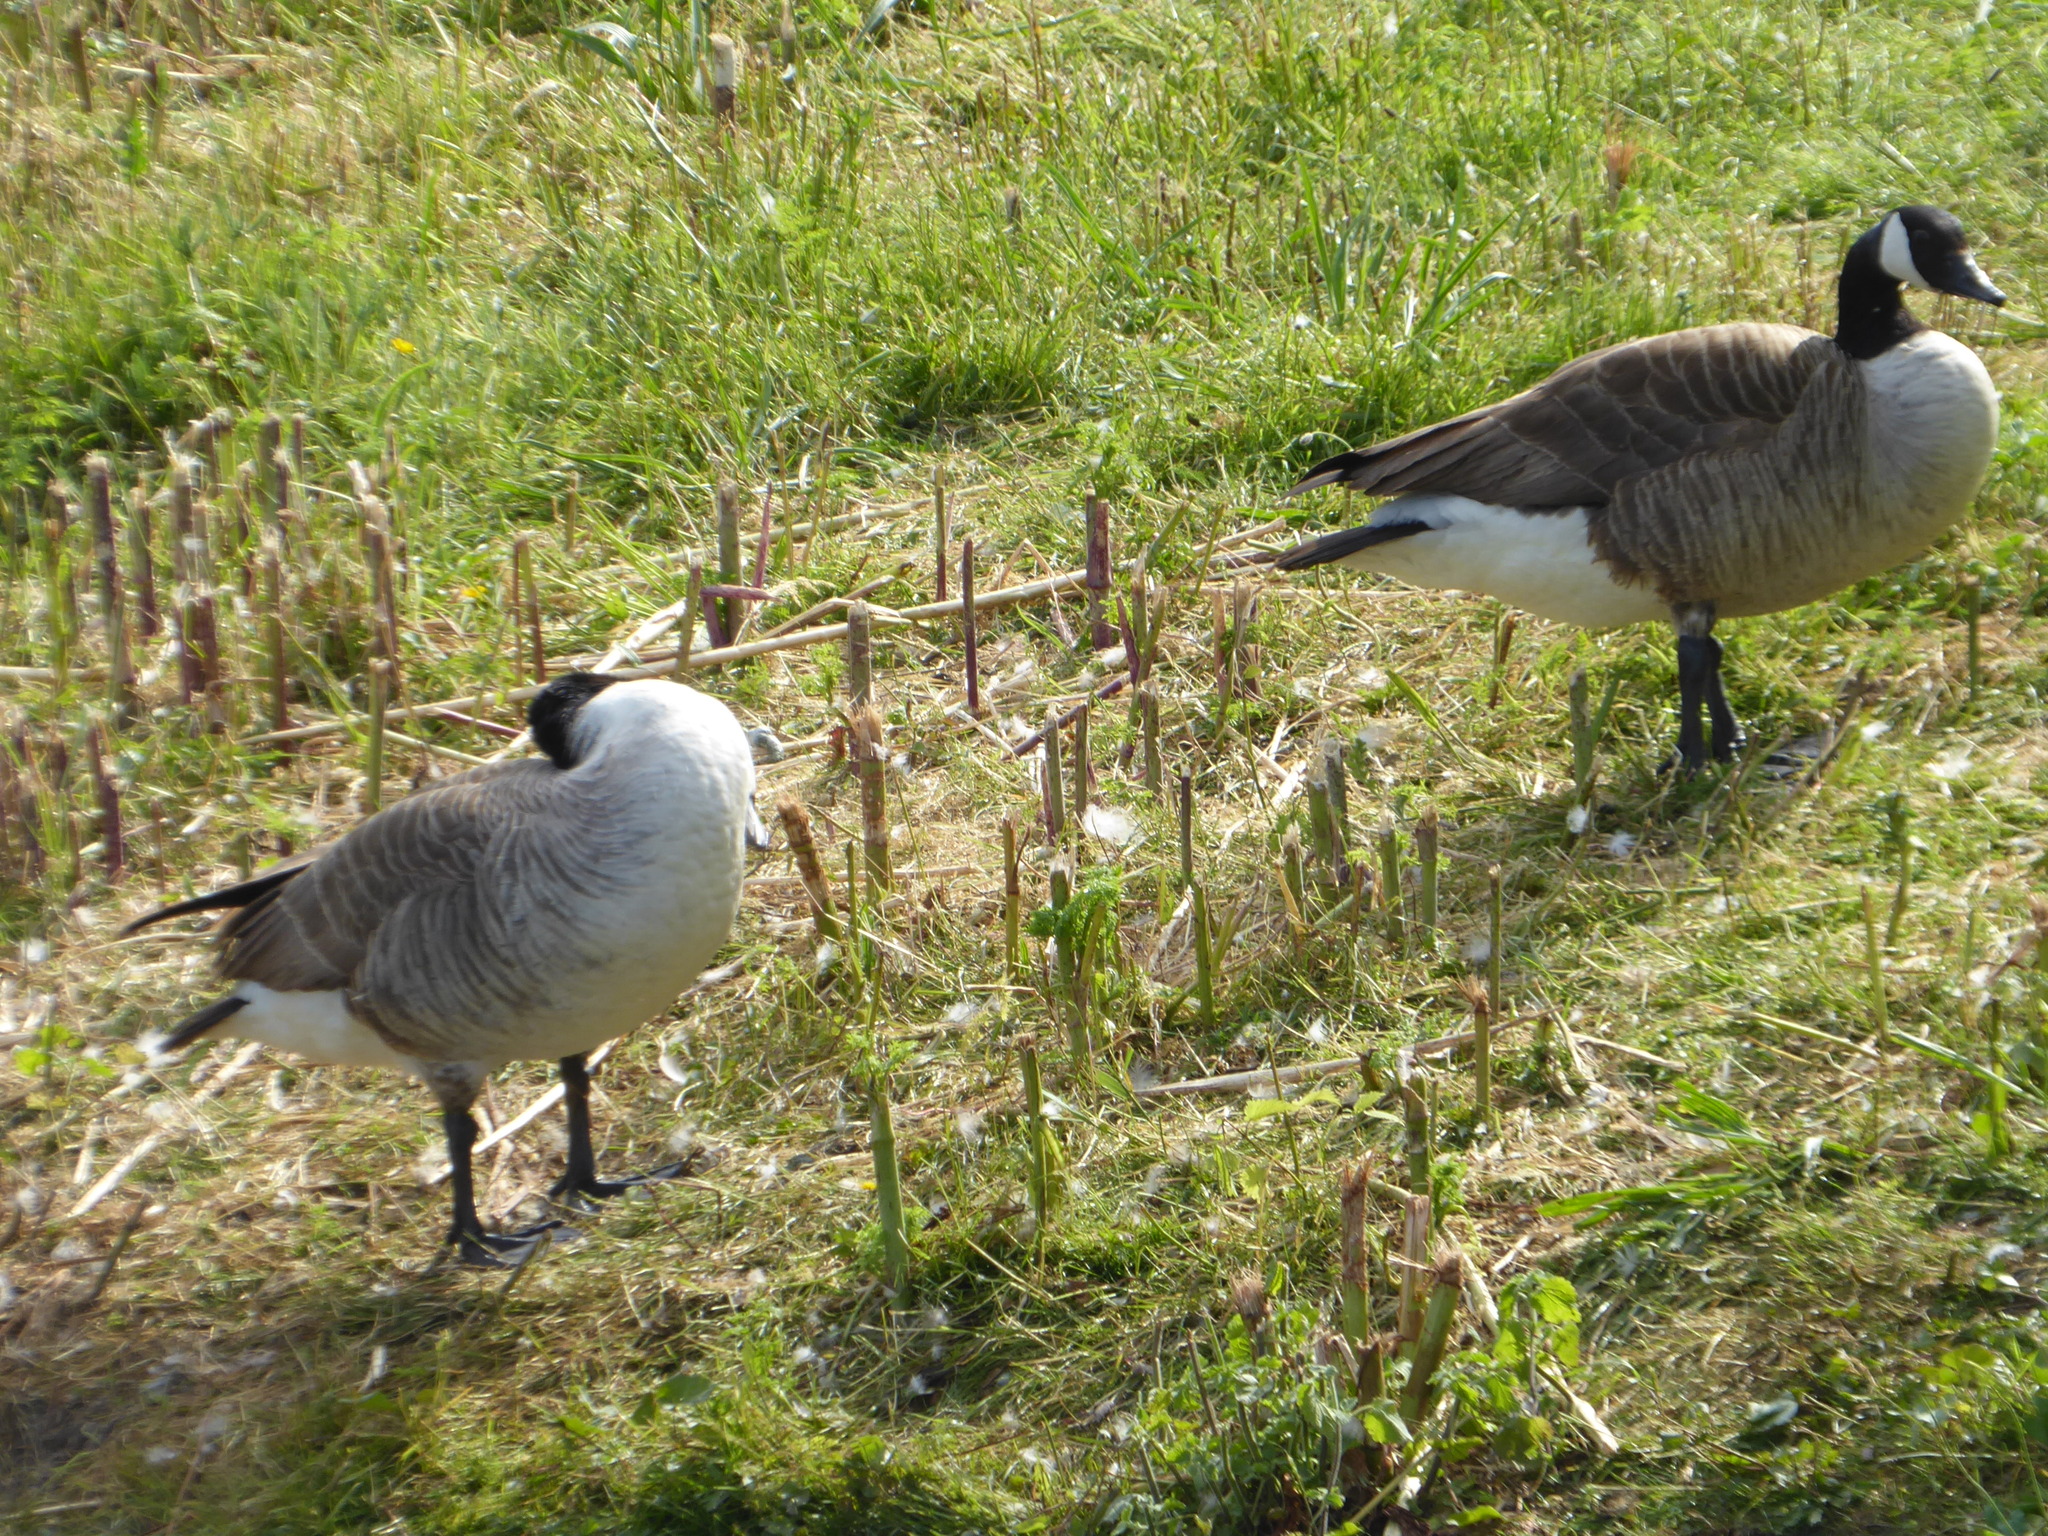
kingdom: Animalia
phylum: Chordata
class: Aves
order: Anseriformes
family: Anatidae
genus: Branta
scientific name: Branta canadensis
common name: Canada goose
